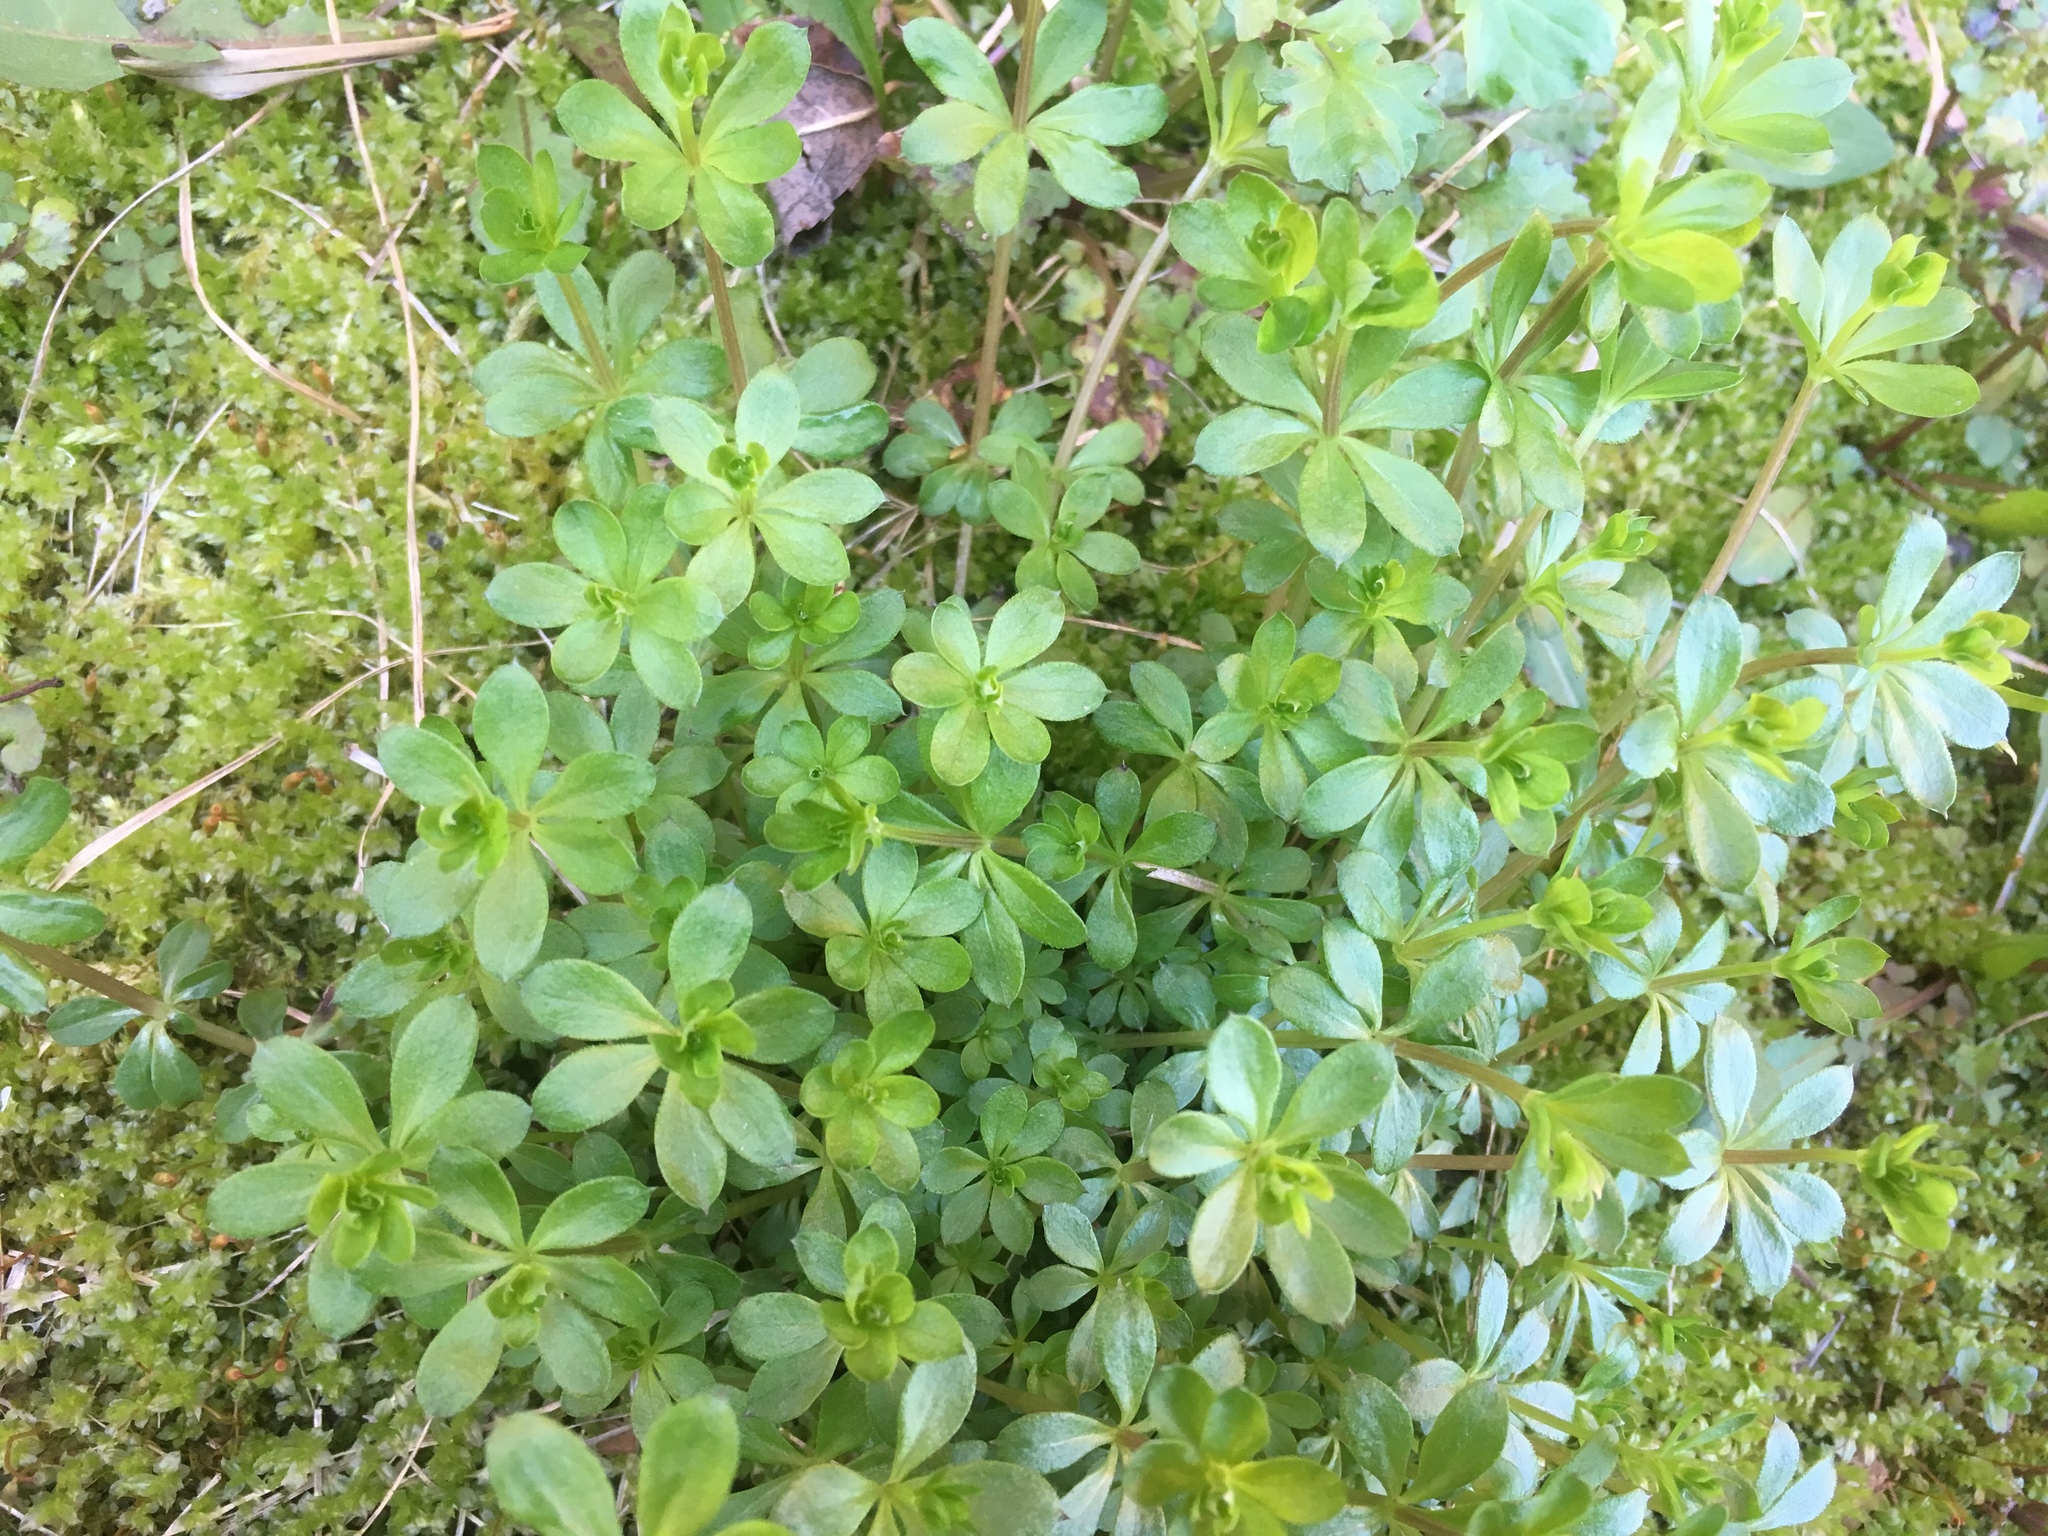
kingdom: Plantae
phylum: Tracheophyta
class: Magnoliopsida
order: Gentianales
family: Rubiaceae
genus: Galium
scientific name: Galium triflorum
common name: Fragrant bedstraw
